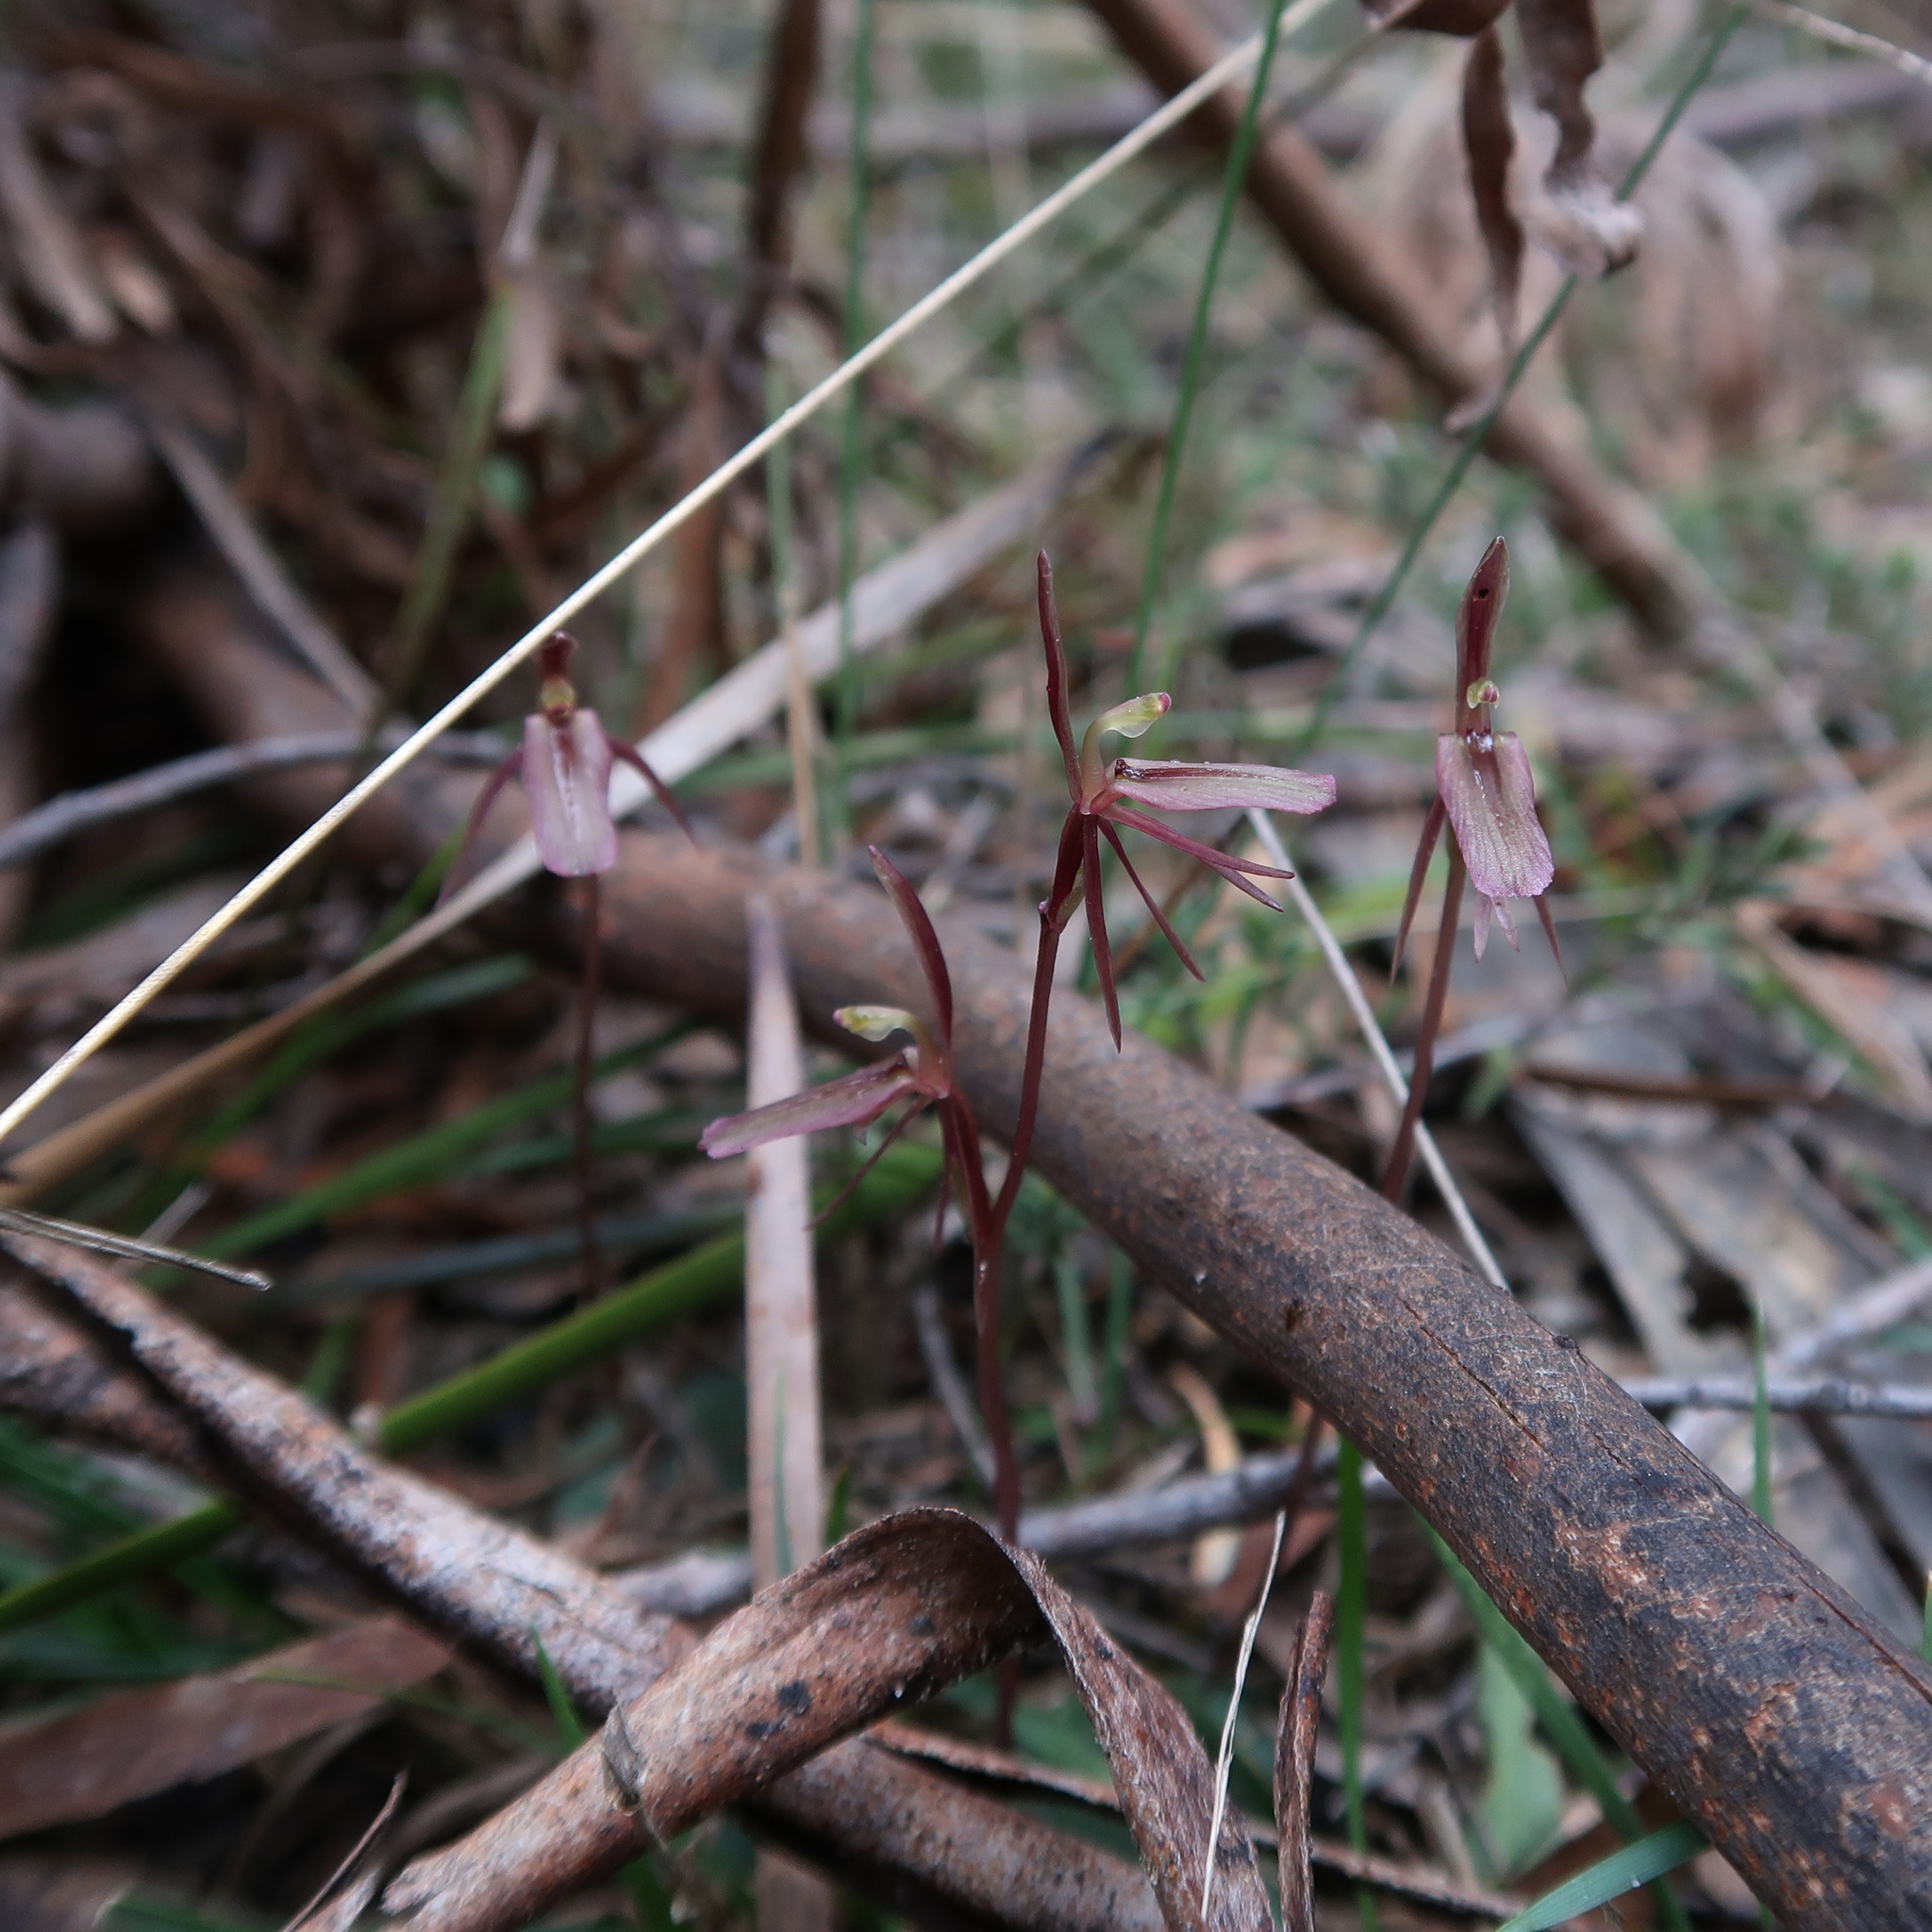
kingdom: Plantae
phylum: Tracheophyta
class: Liliopsida
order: Asparagales
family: Orchidaceae
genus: Cyrtostylis
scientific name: Cyrtostylis reniformis
